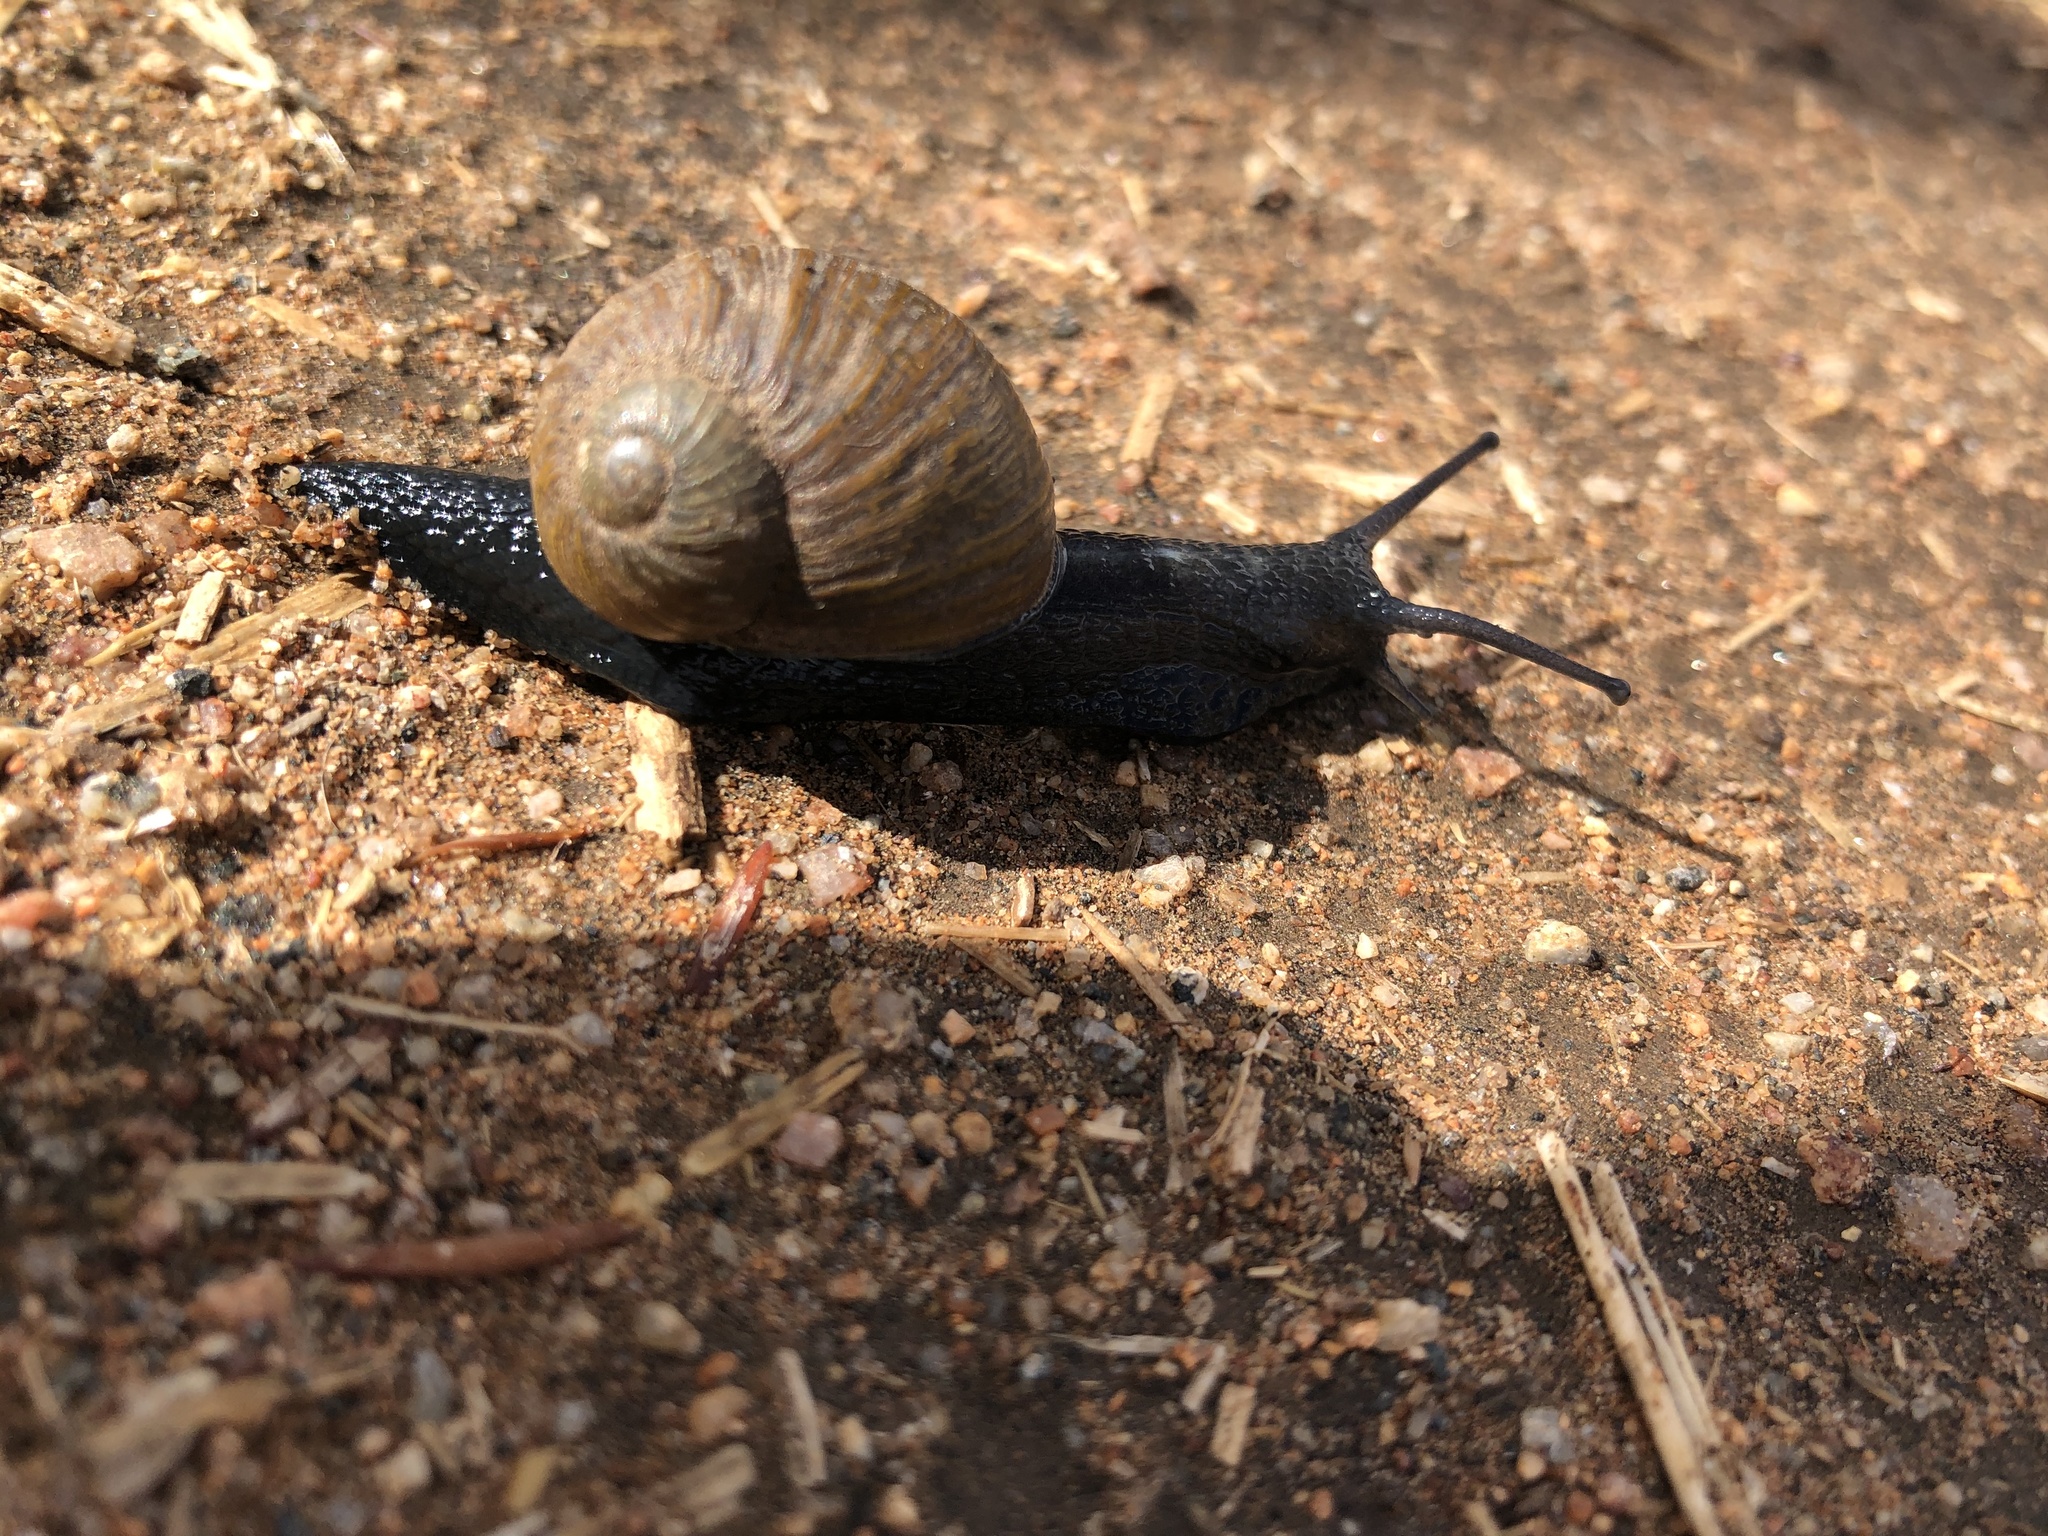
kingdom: Animalia
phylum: Mollusca
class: Gastropoda
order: Stylommatophora
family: Helicidae
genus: Cantareus
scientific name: Cantareus apertus
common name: Green gardensnail
